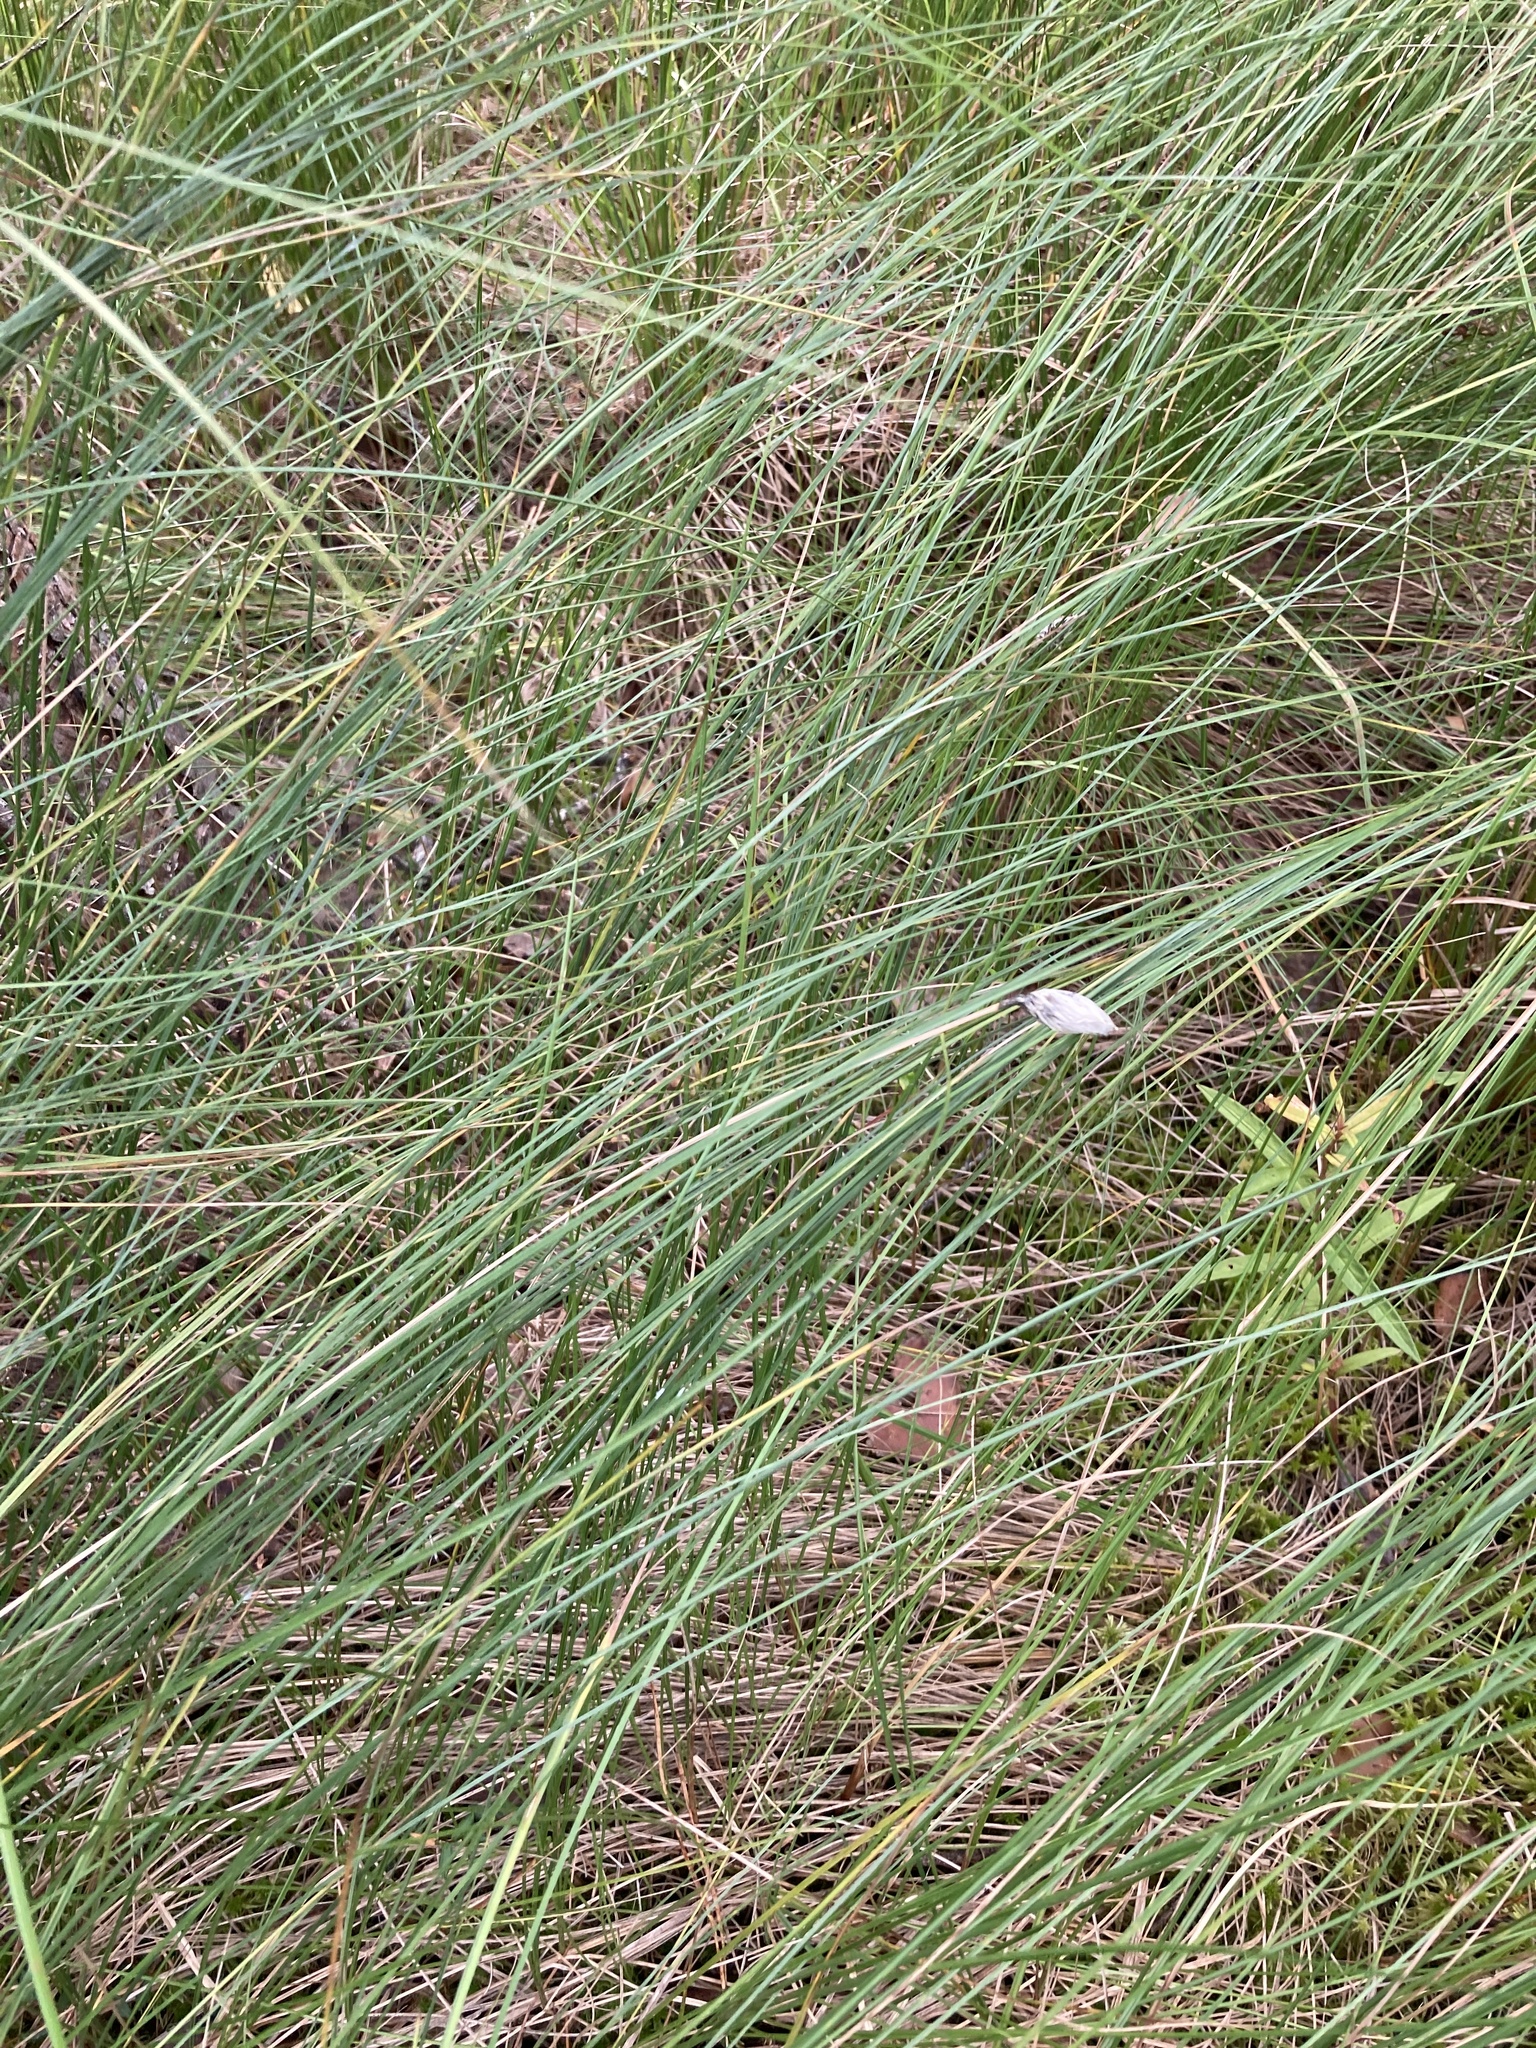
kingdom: Plantae
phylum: Tracheophyta
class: Liliopsida
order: Poales
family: Cyperaceae
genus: Eriophorum
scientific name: Eriophorum vaginatum
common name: Hare's-tail cottongrass
